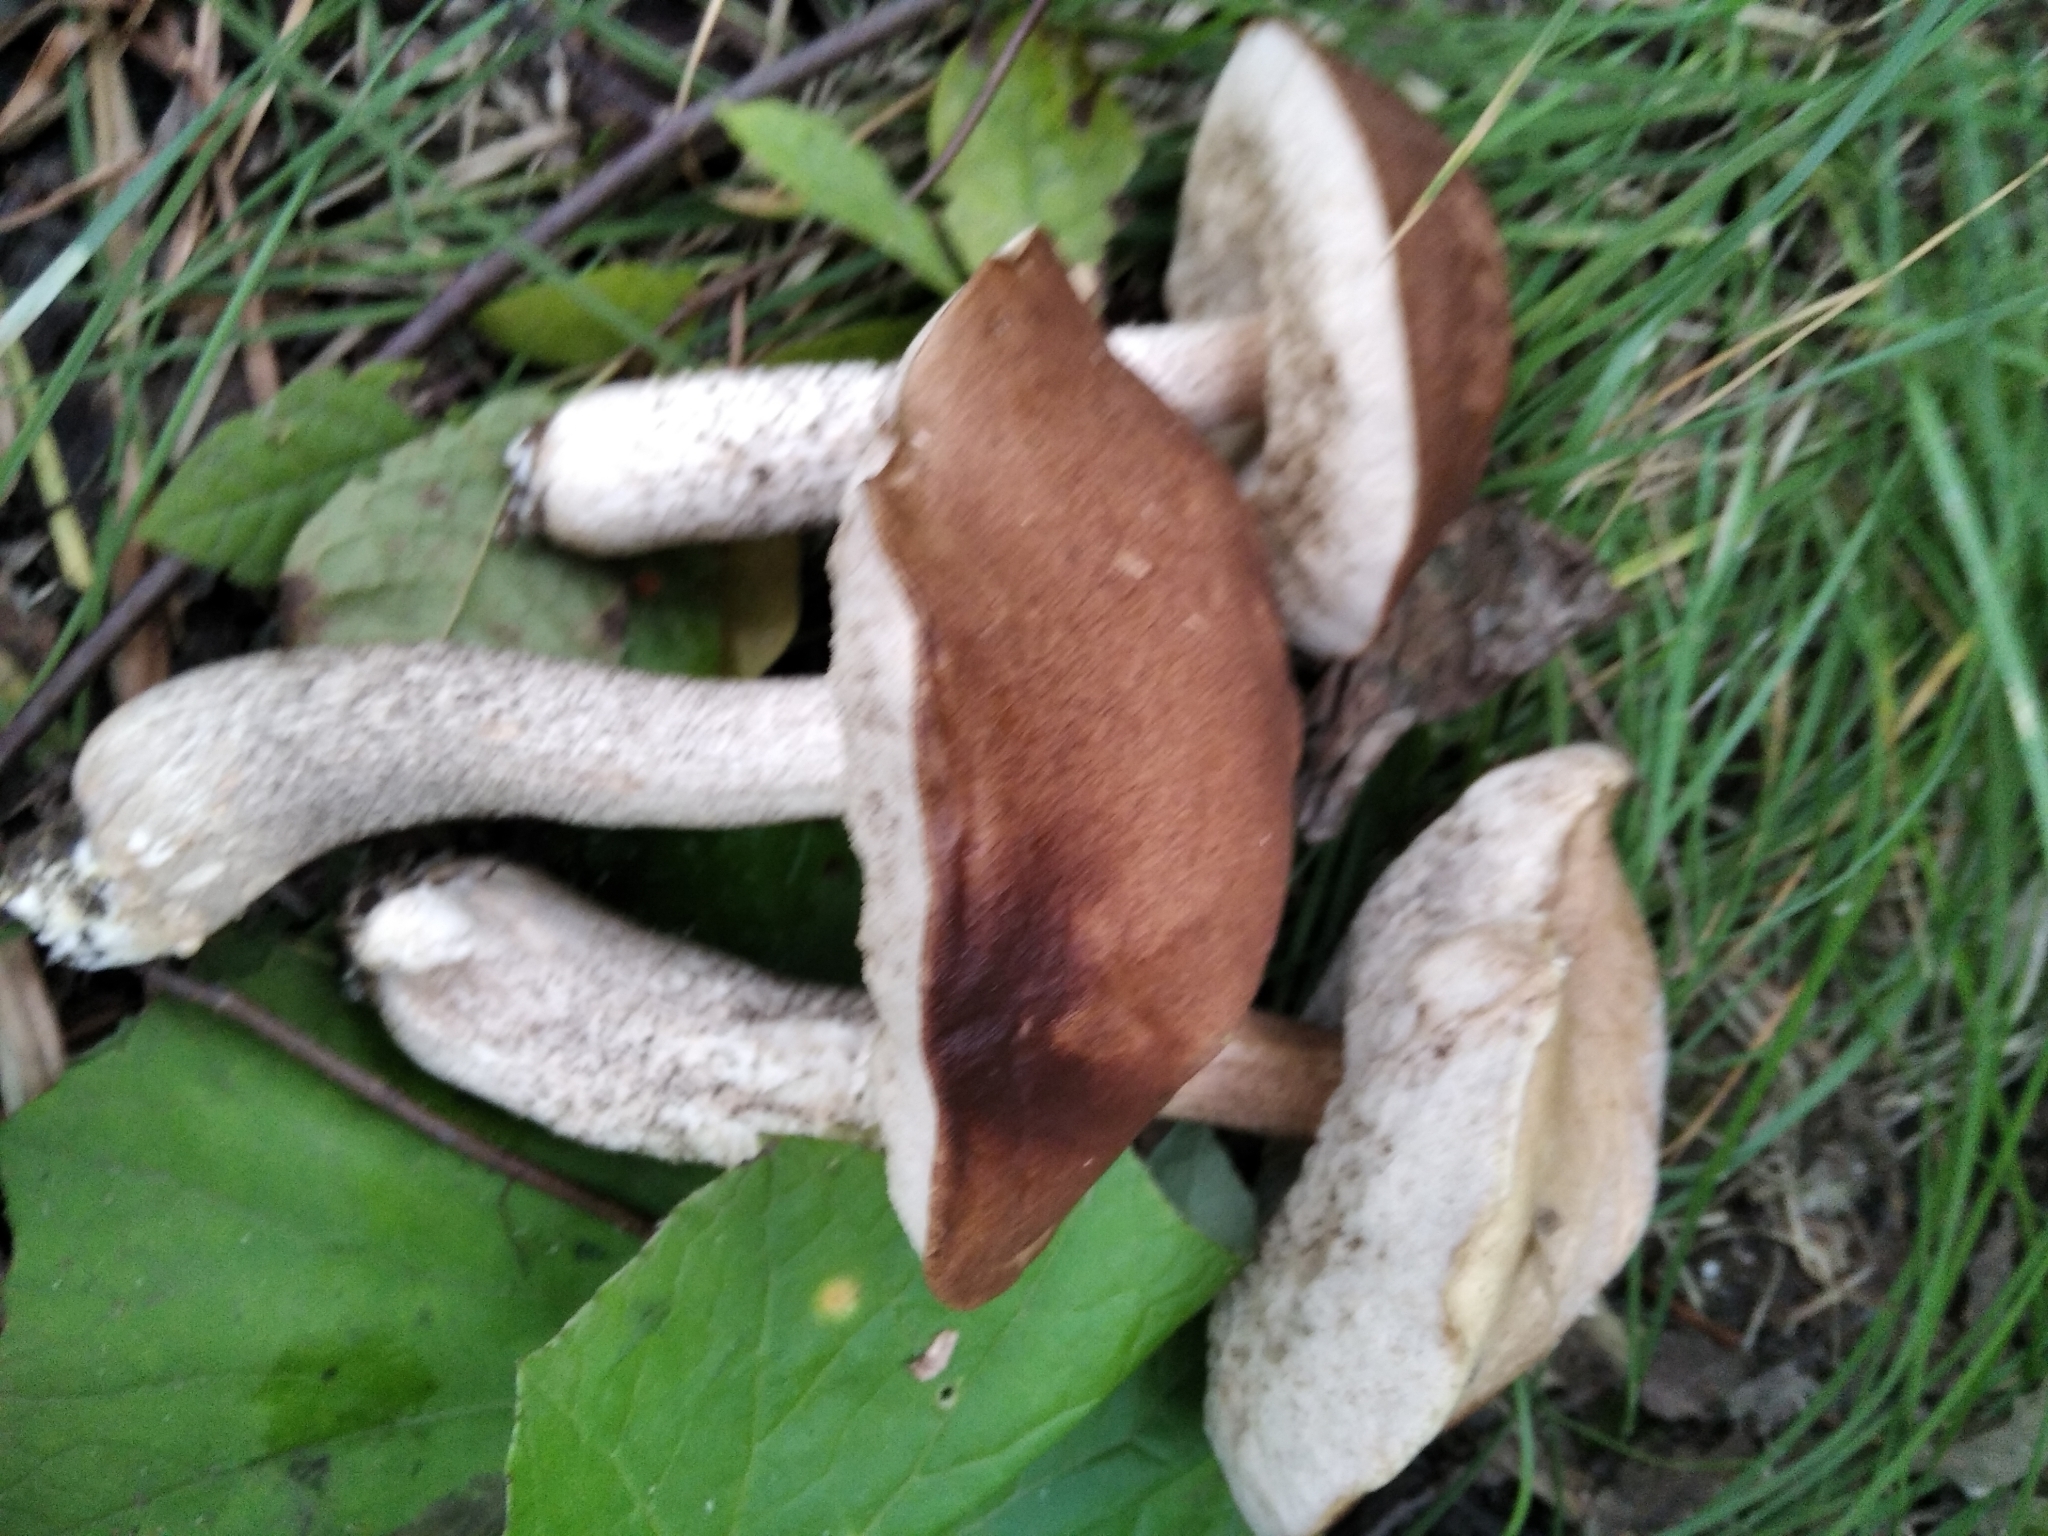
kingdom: Fungi
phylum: Basidiomycota
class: Agaricomycetes
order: Boletales
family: Boletaceae
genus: Leccinum
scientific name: Leccinum scabrum
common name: Blushing bolete
